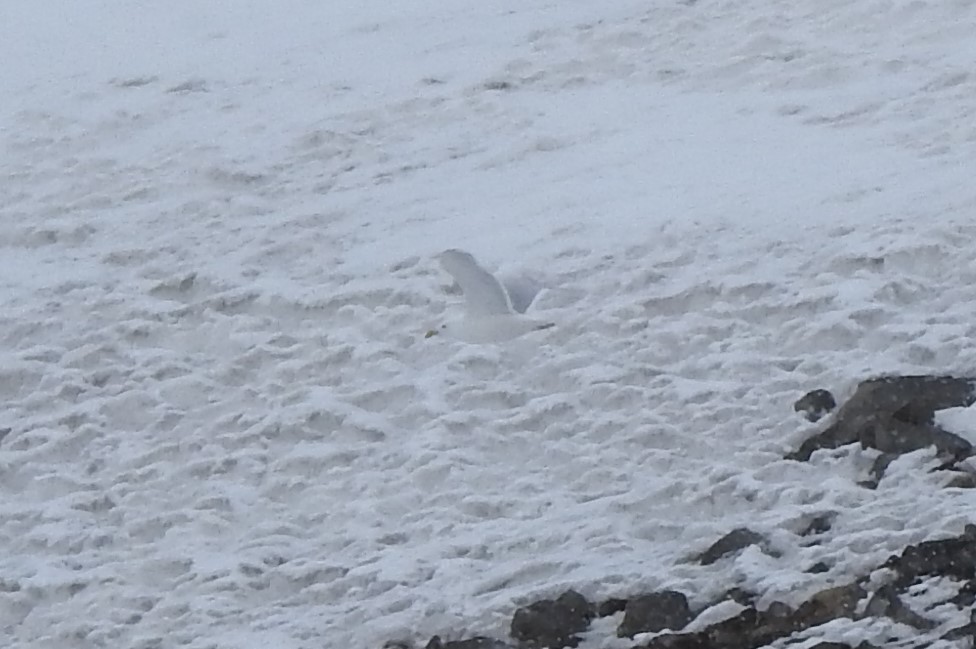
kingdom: Animalia
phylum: Chordata
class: Aves
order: Charadriiformes
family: Laridae
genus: Larus
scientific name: Larus hyperboreus
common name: Glaucous gull
